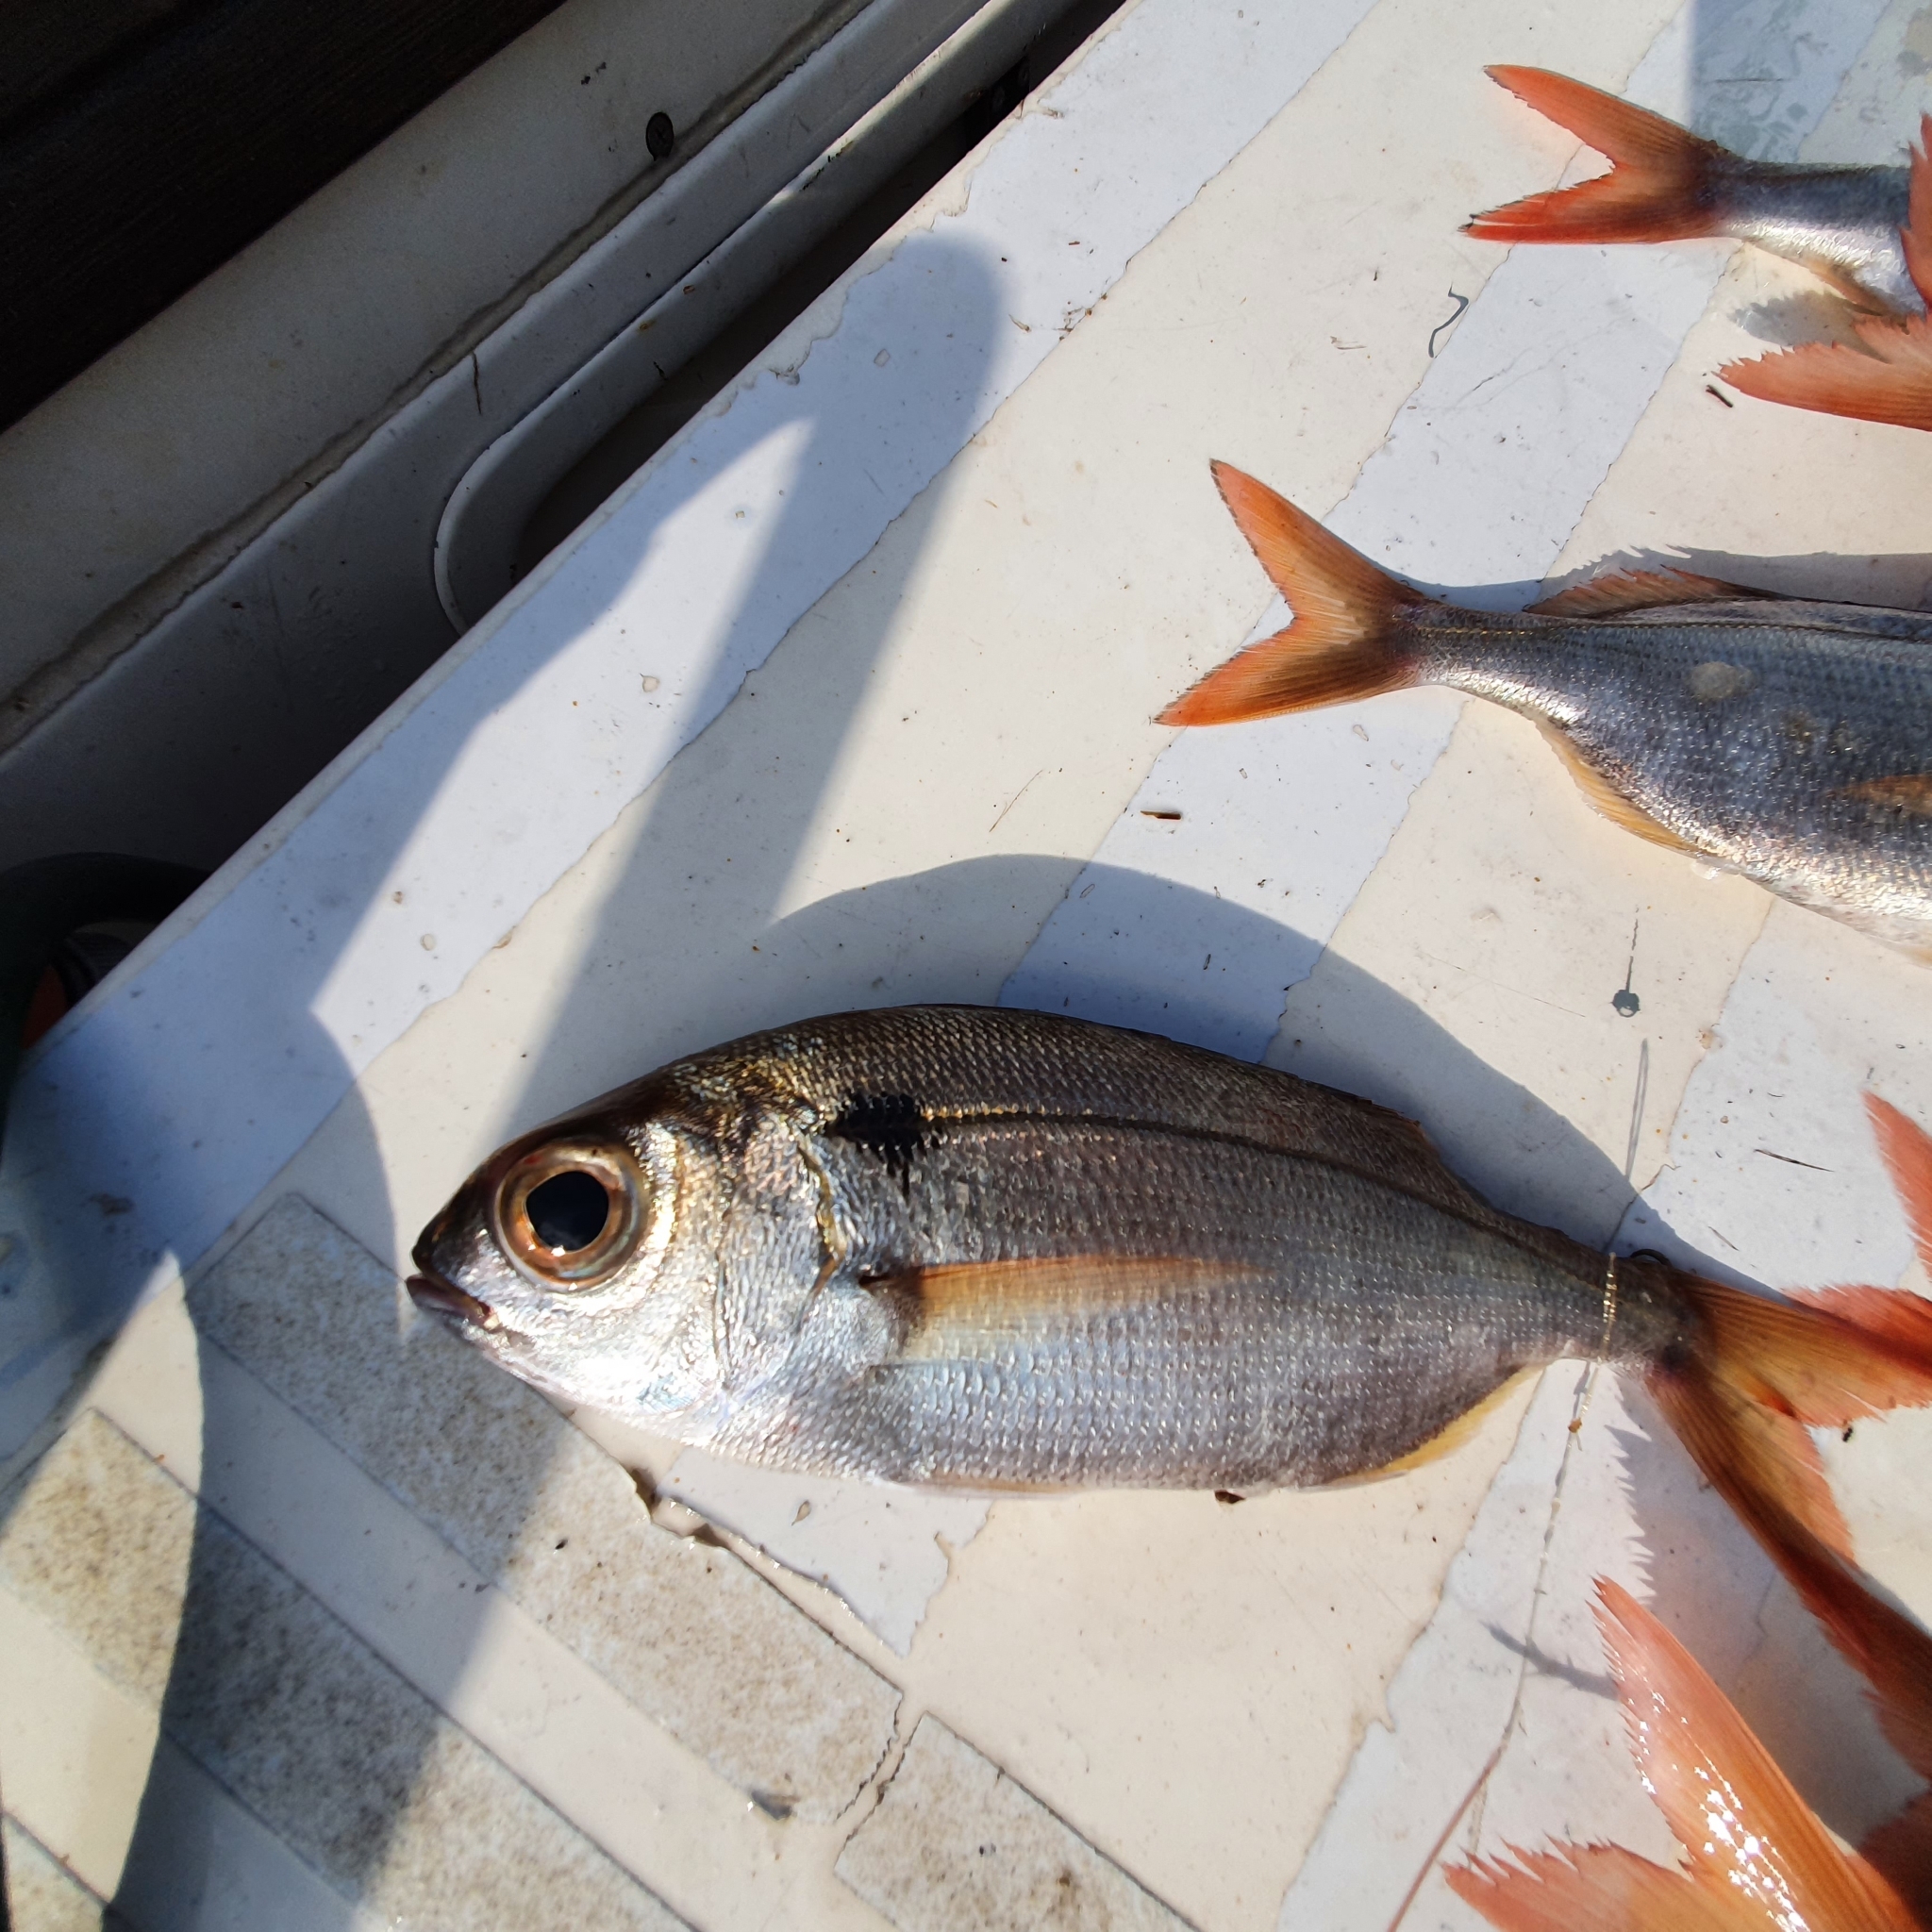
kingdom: Animalia
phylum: Chordata
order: Perciformes
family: Sparidae
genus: Pagellus
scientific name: Pagellus bogaraveo
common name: Red sea-bream
